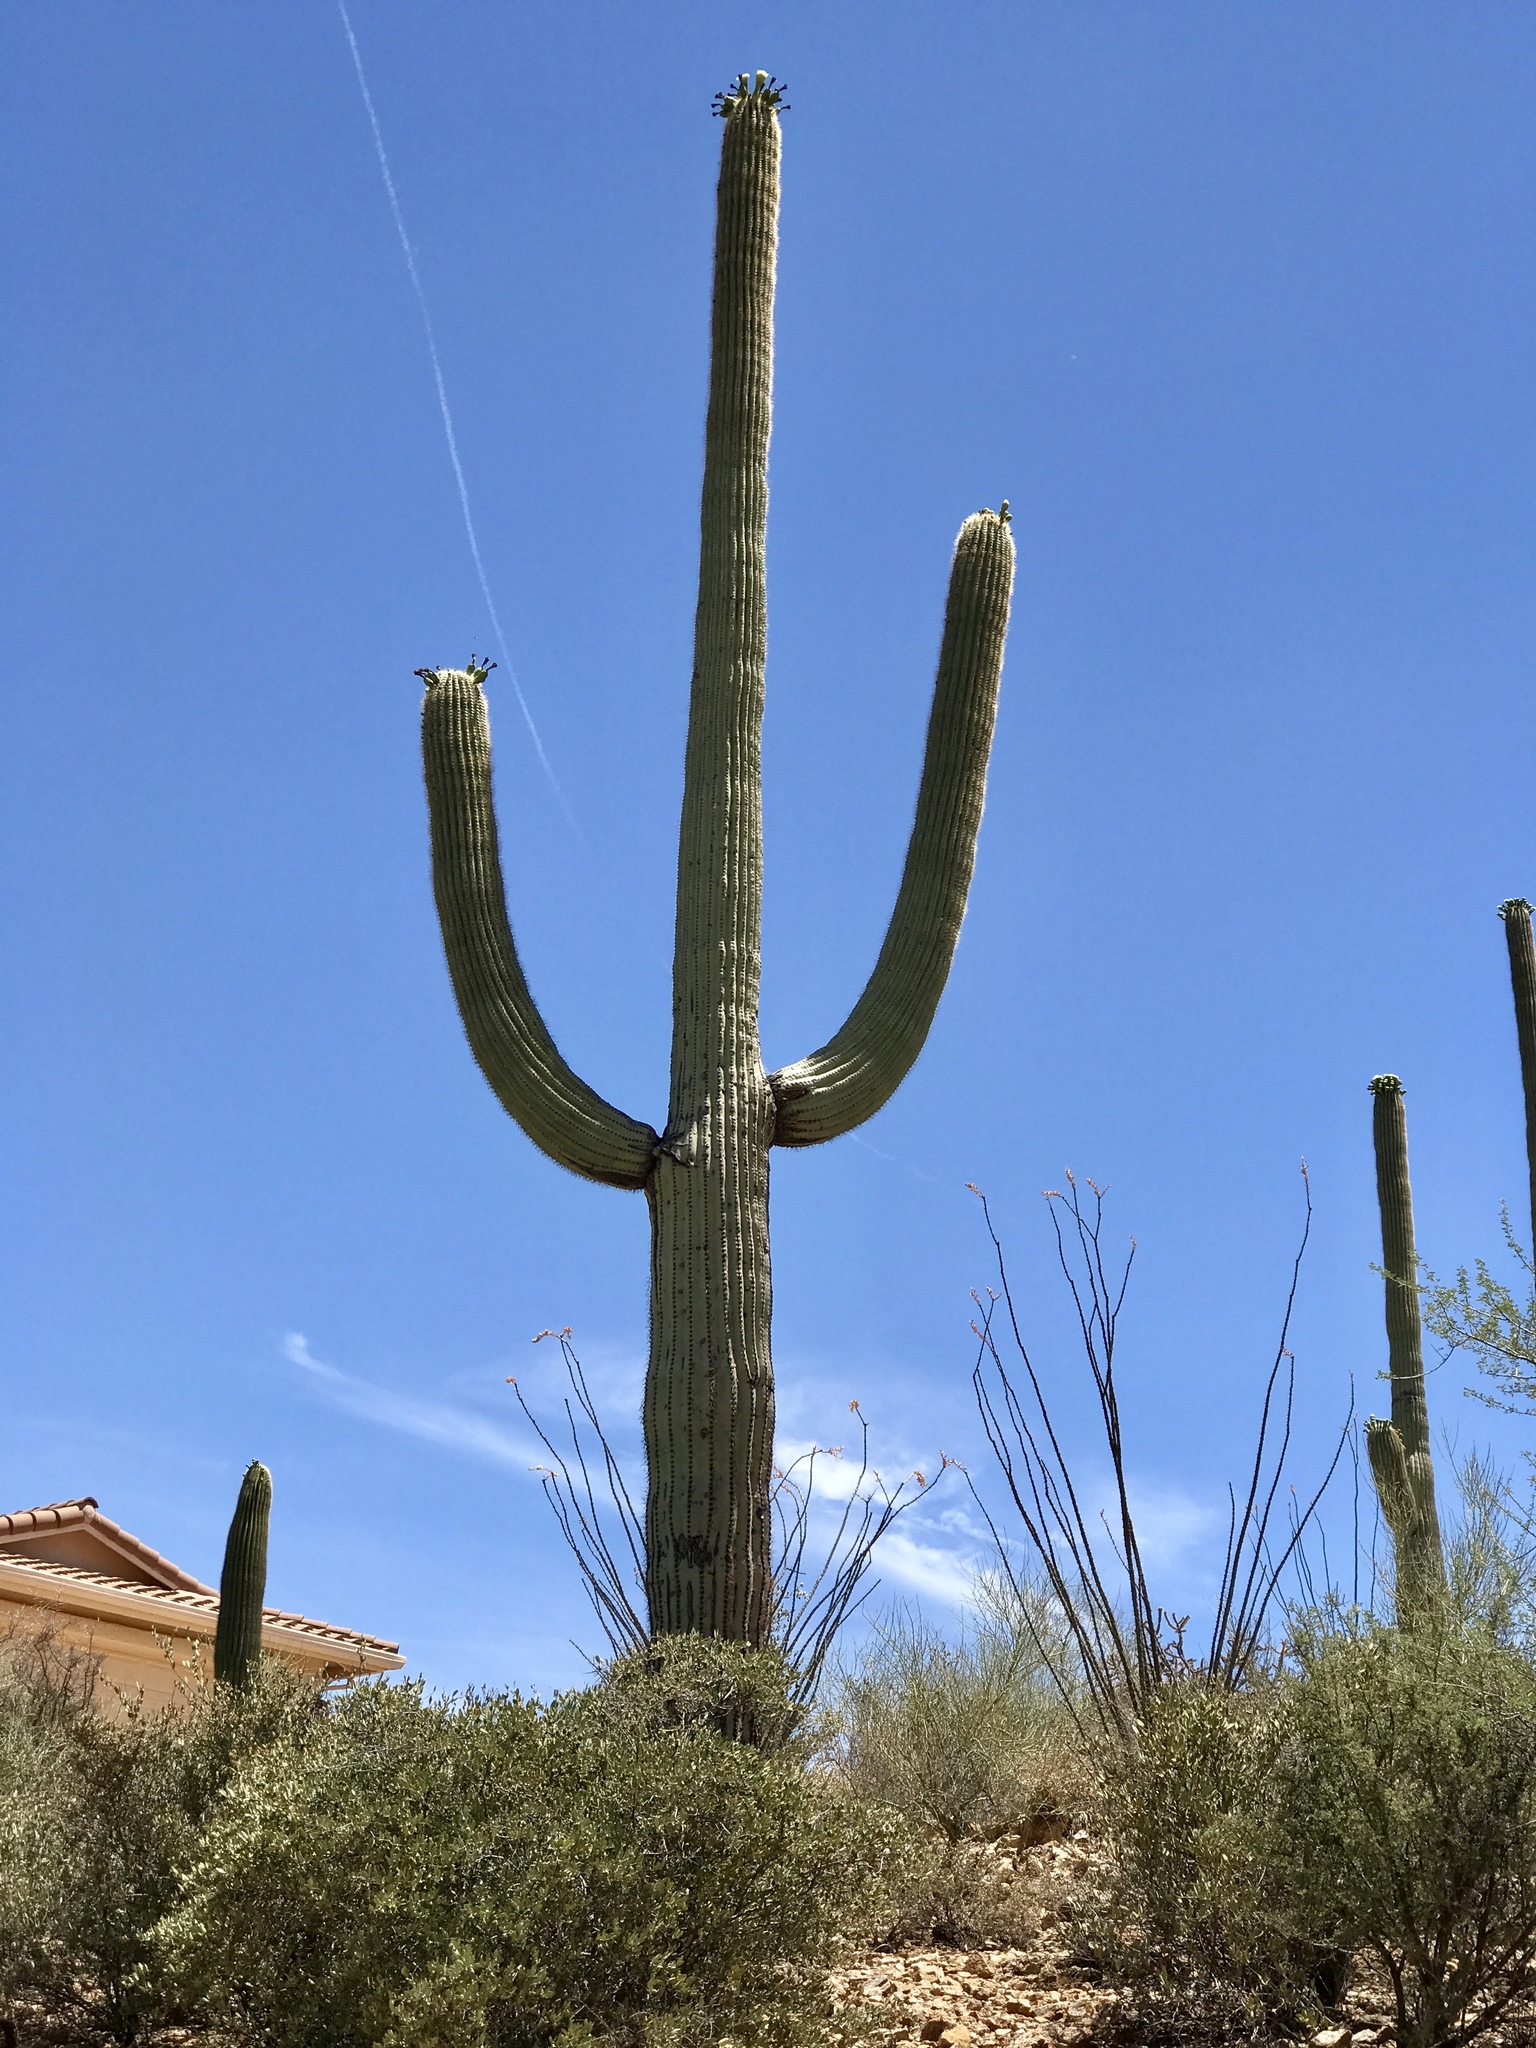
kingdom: Plantae
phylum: Tracheophyta
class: Magnoliopsida
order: Caryophyllales
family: Cactaceae
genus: Carnegiea
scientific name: Carnegiea gigantea
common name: Saguaro
